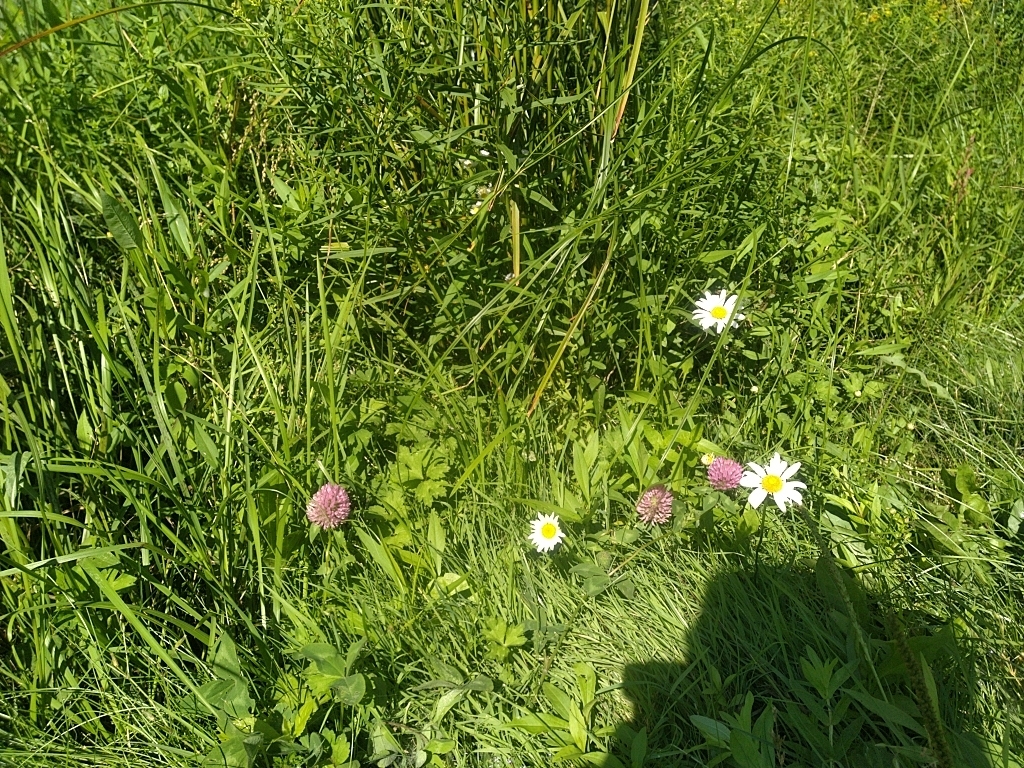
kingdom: Plantae
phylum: Tracheophyta
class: Magnoliopsida
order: Fabales
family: Fabaceae
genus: Trifolium
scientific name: Trifolium pratense
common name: Red clover
